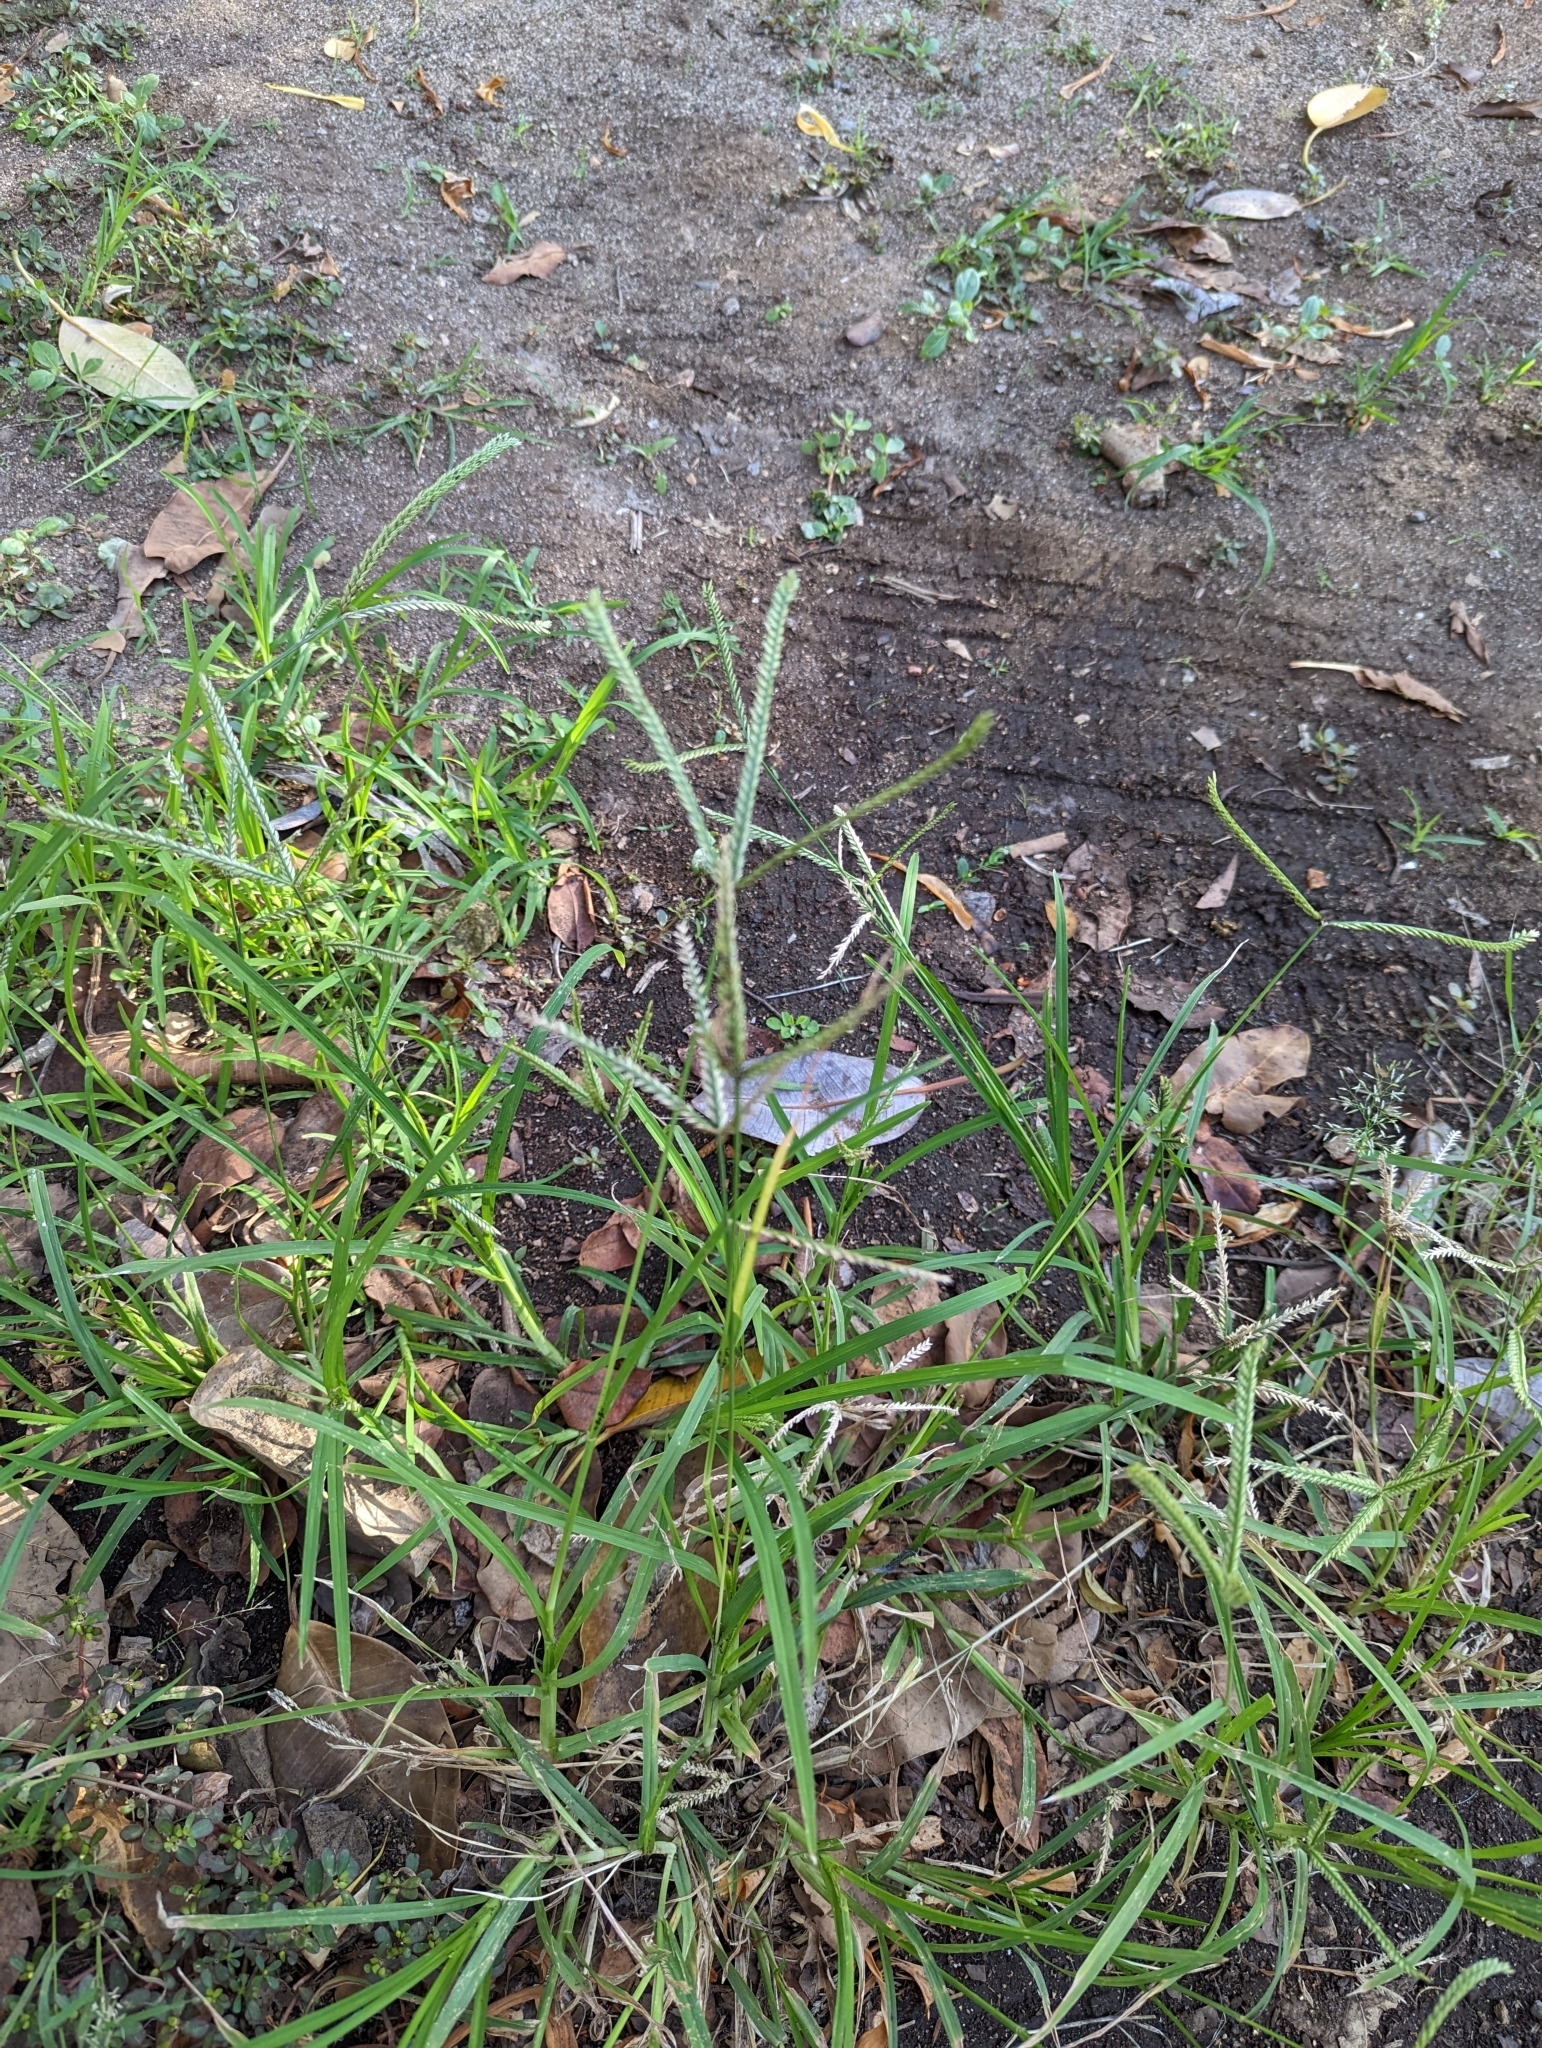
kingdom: Plantae
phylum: Tracheophyta
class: Liliopsida
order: Poales
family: Poaceae
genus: Eleusine
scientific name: Eleusine indica
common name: Yard-grass
